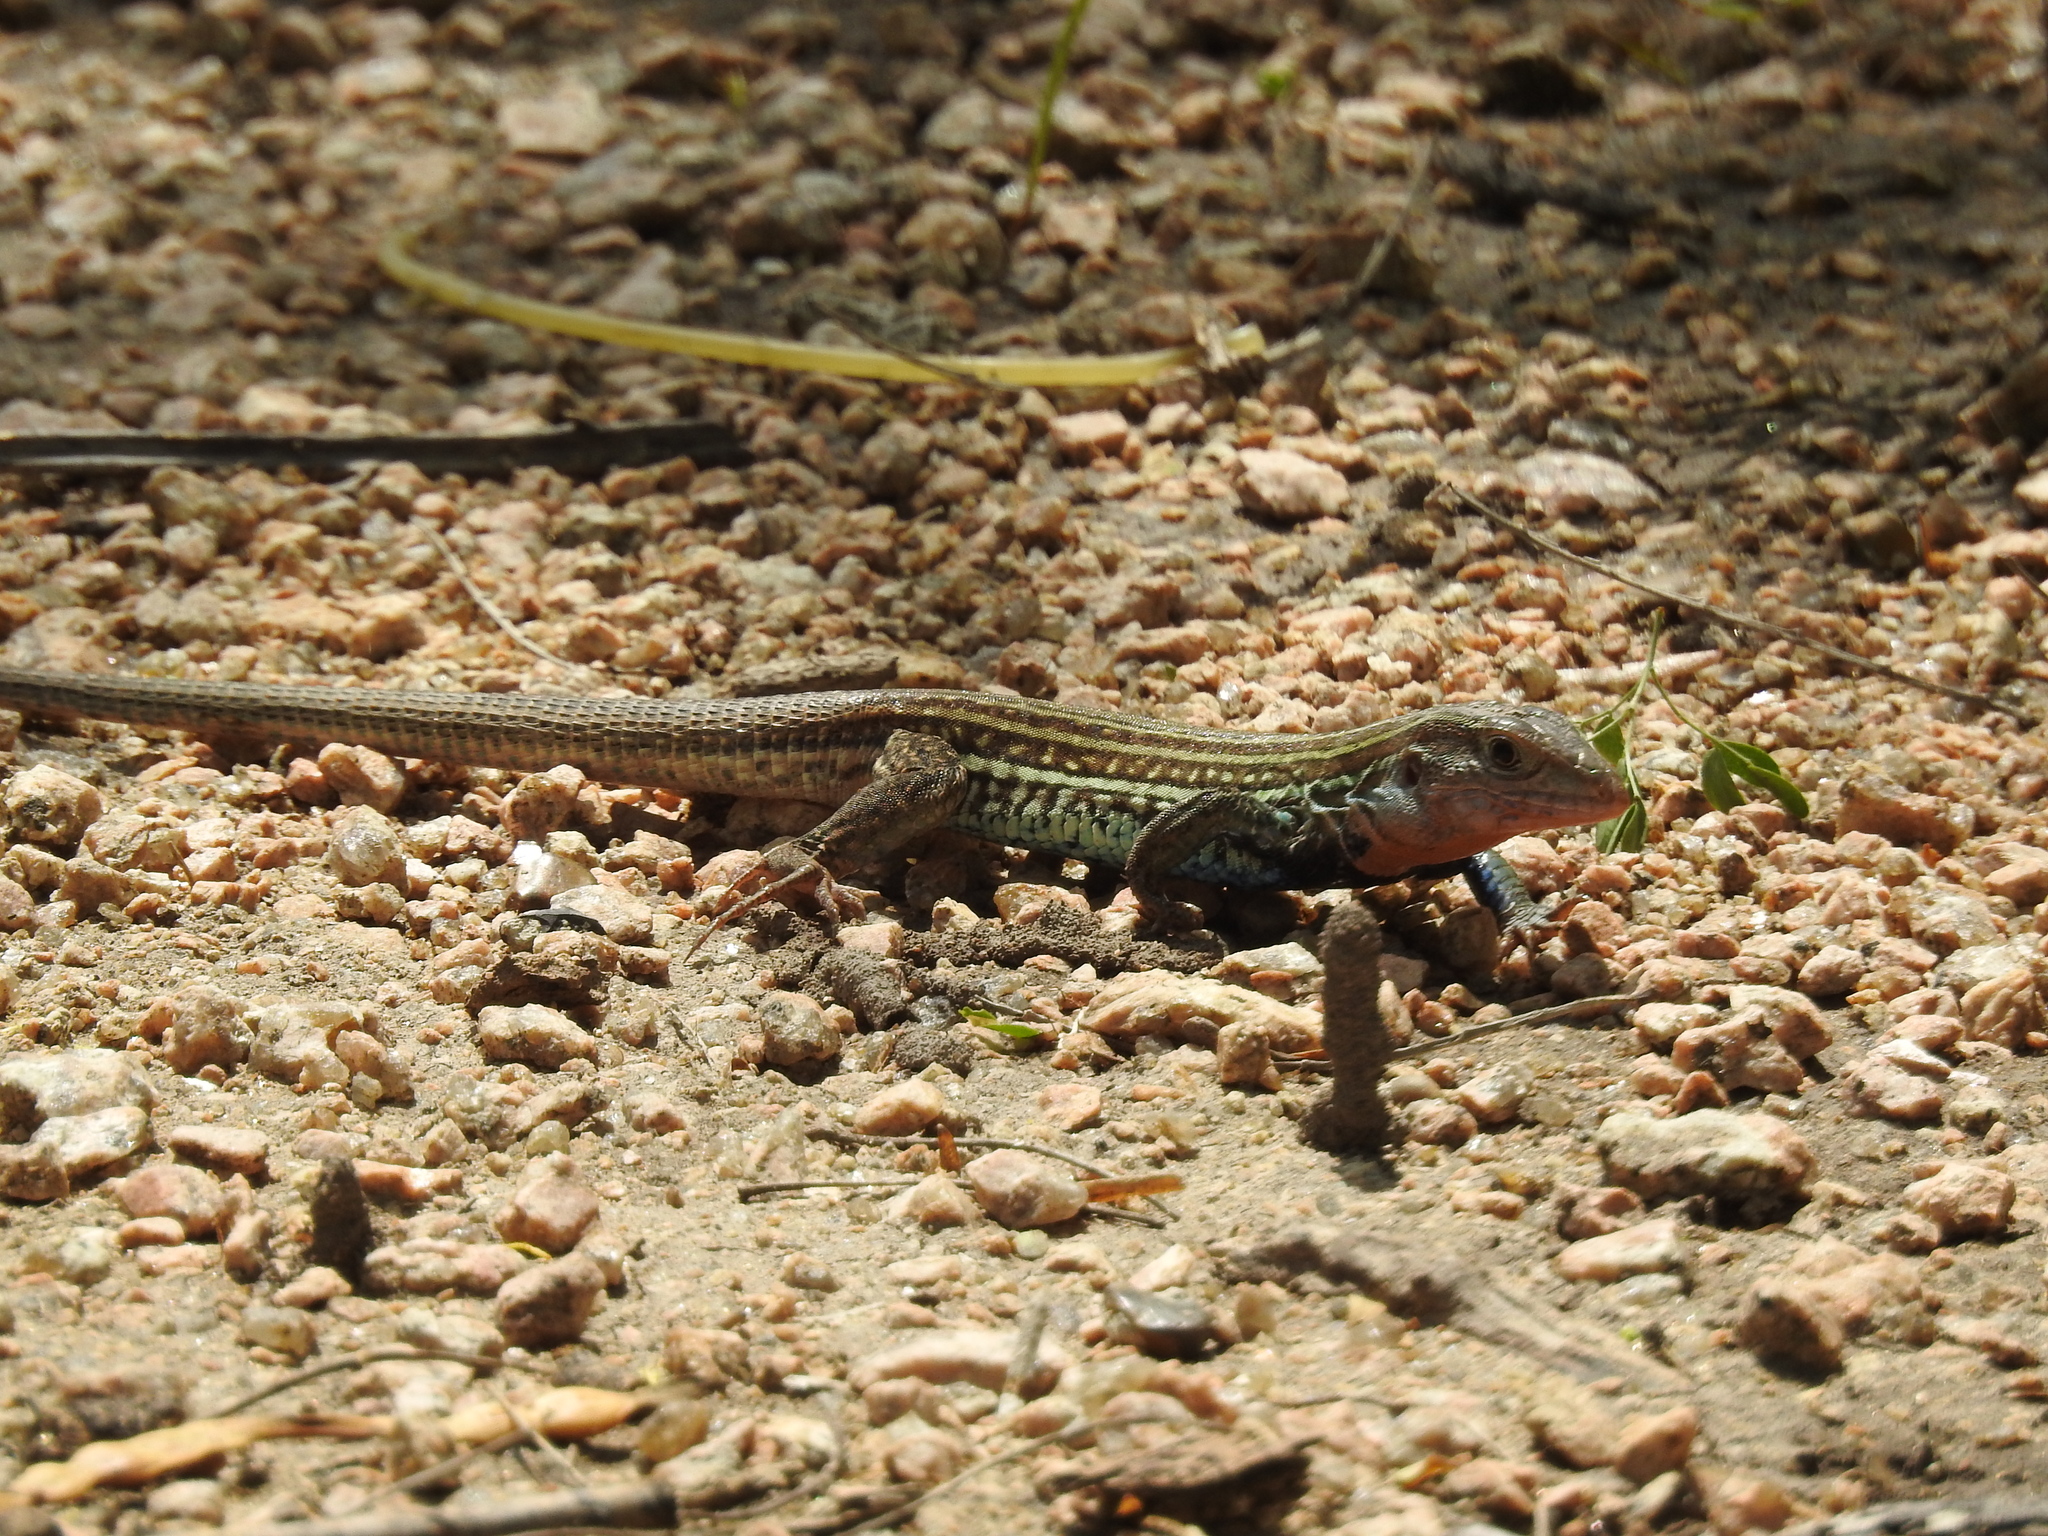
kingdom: Animalia
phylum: Chordata
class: Squamata
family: Teiidae
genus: Aspidoscelis
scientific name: Aspidoscelis gularis
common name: Eastern spotted whiptail
